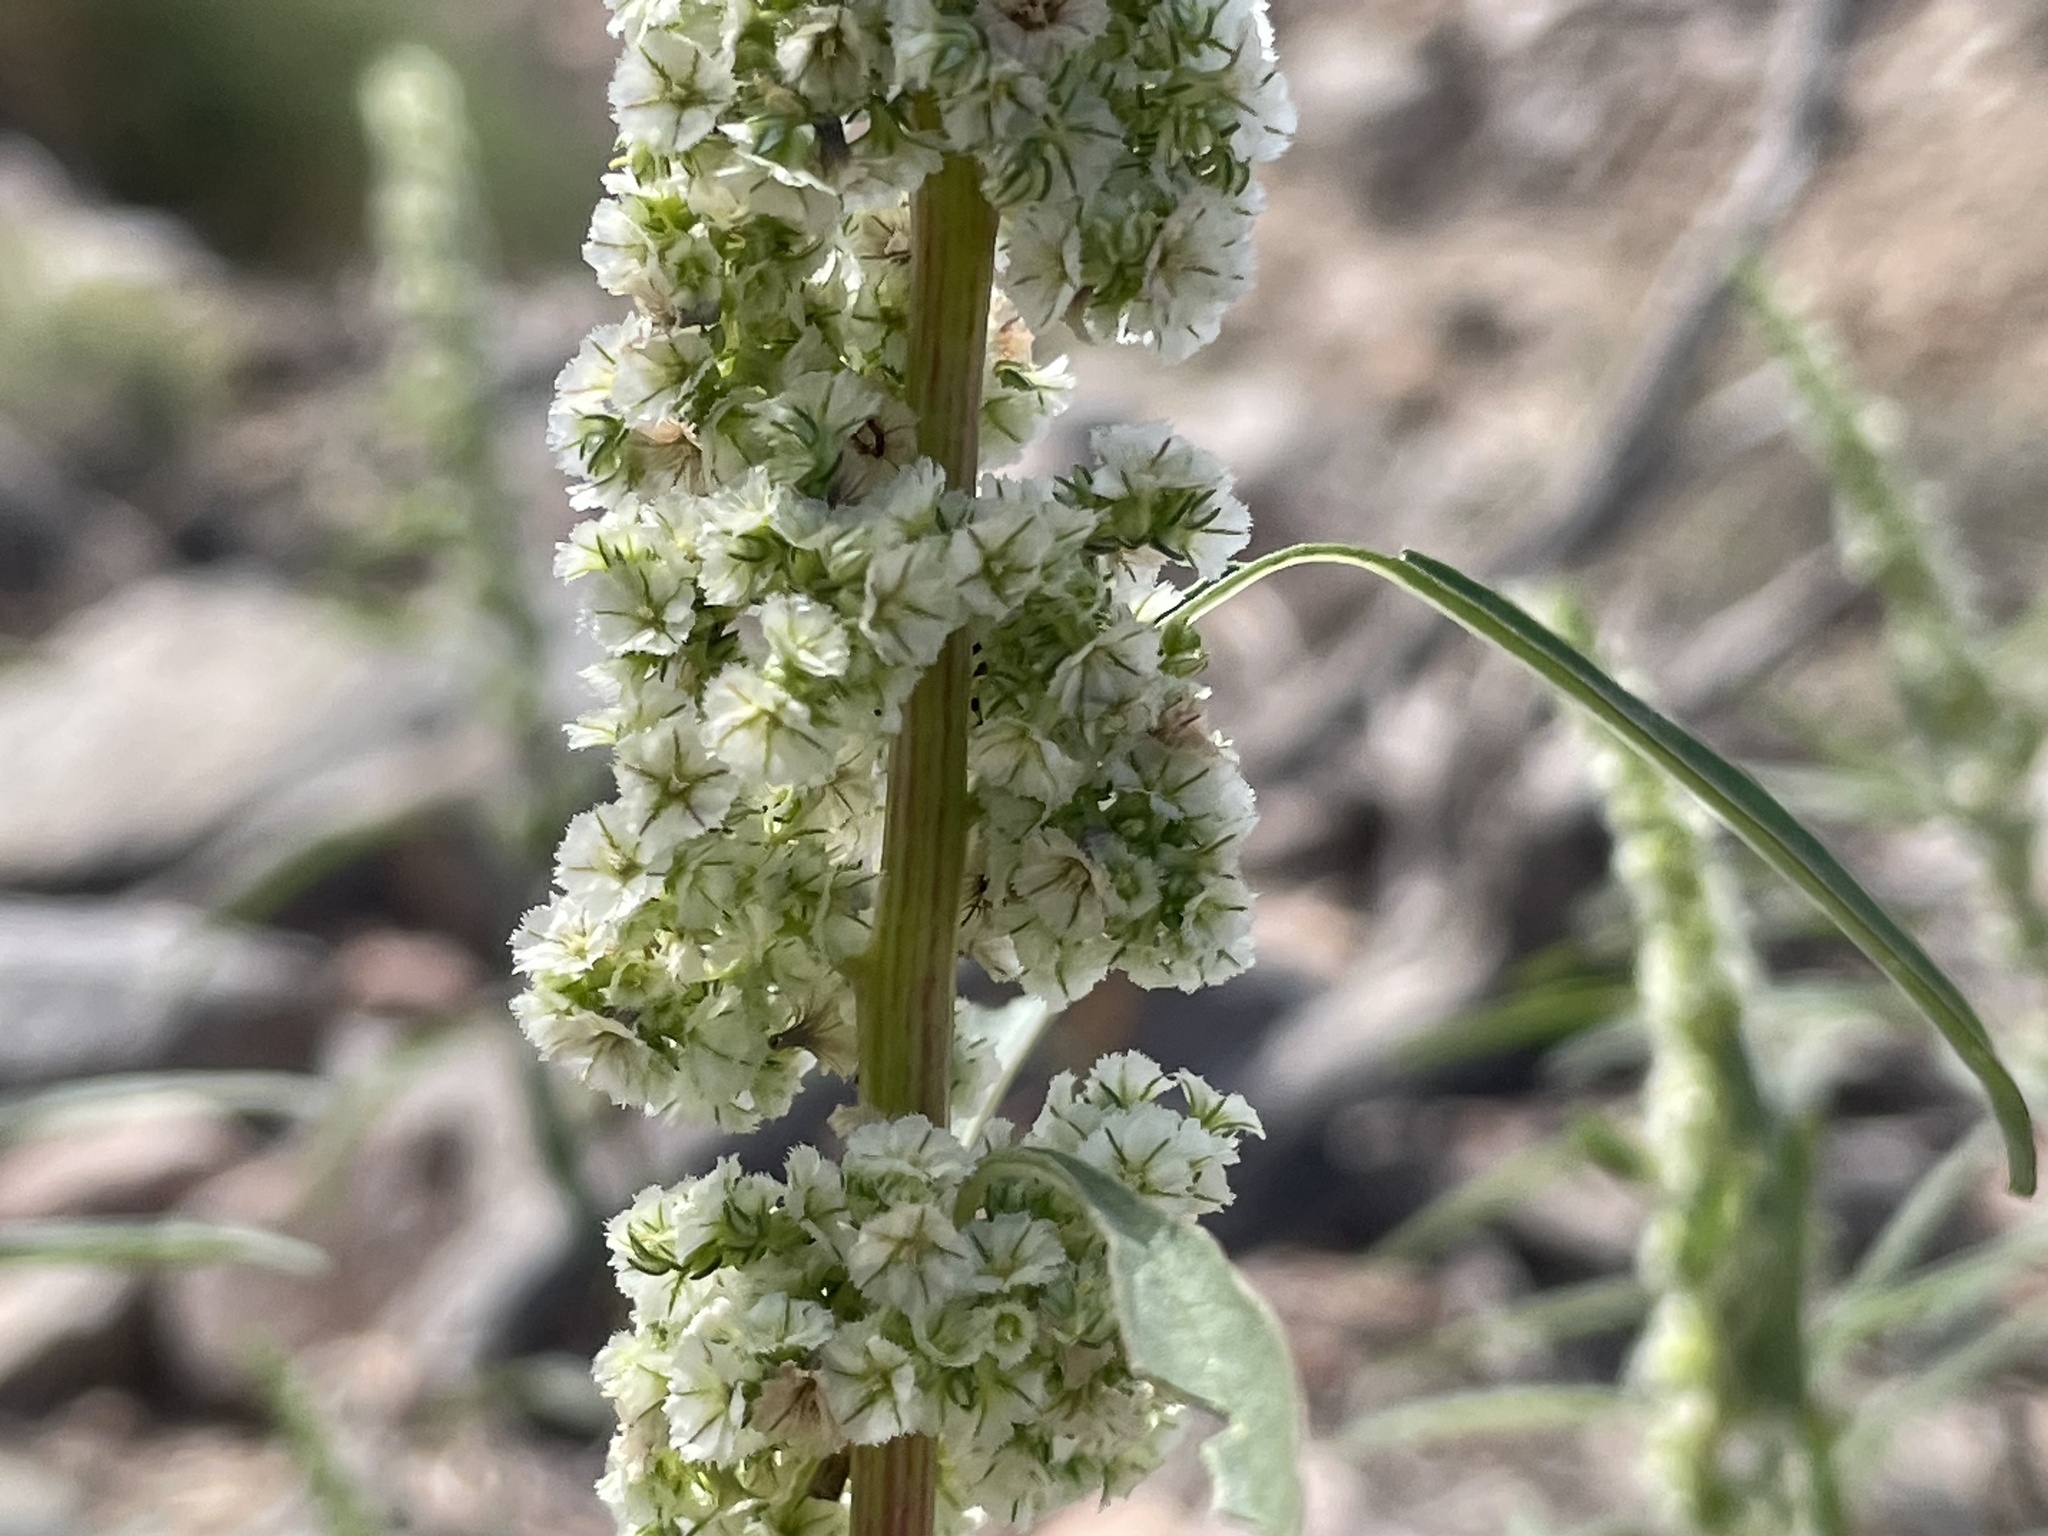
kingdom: Plantae
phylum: Tracheophyta
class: Magnoliopsida
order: Caryophyllales
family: Amaranthaceae
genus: Amaranthus
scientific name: Amaranthus fimbriatus
